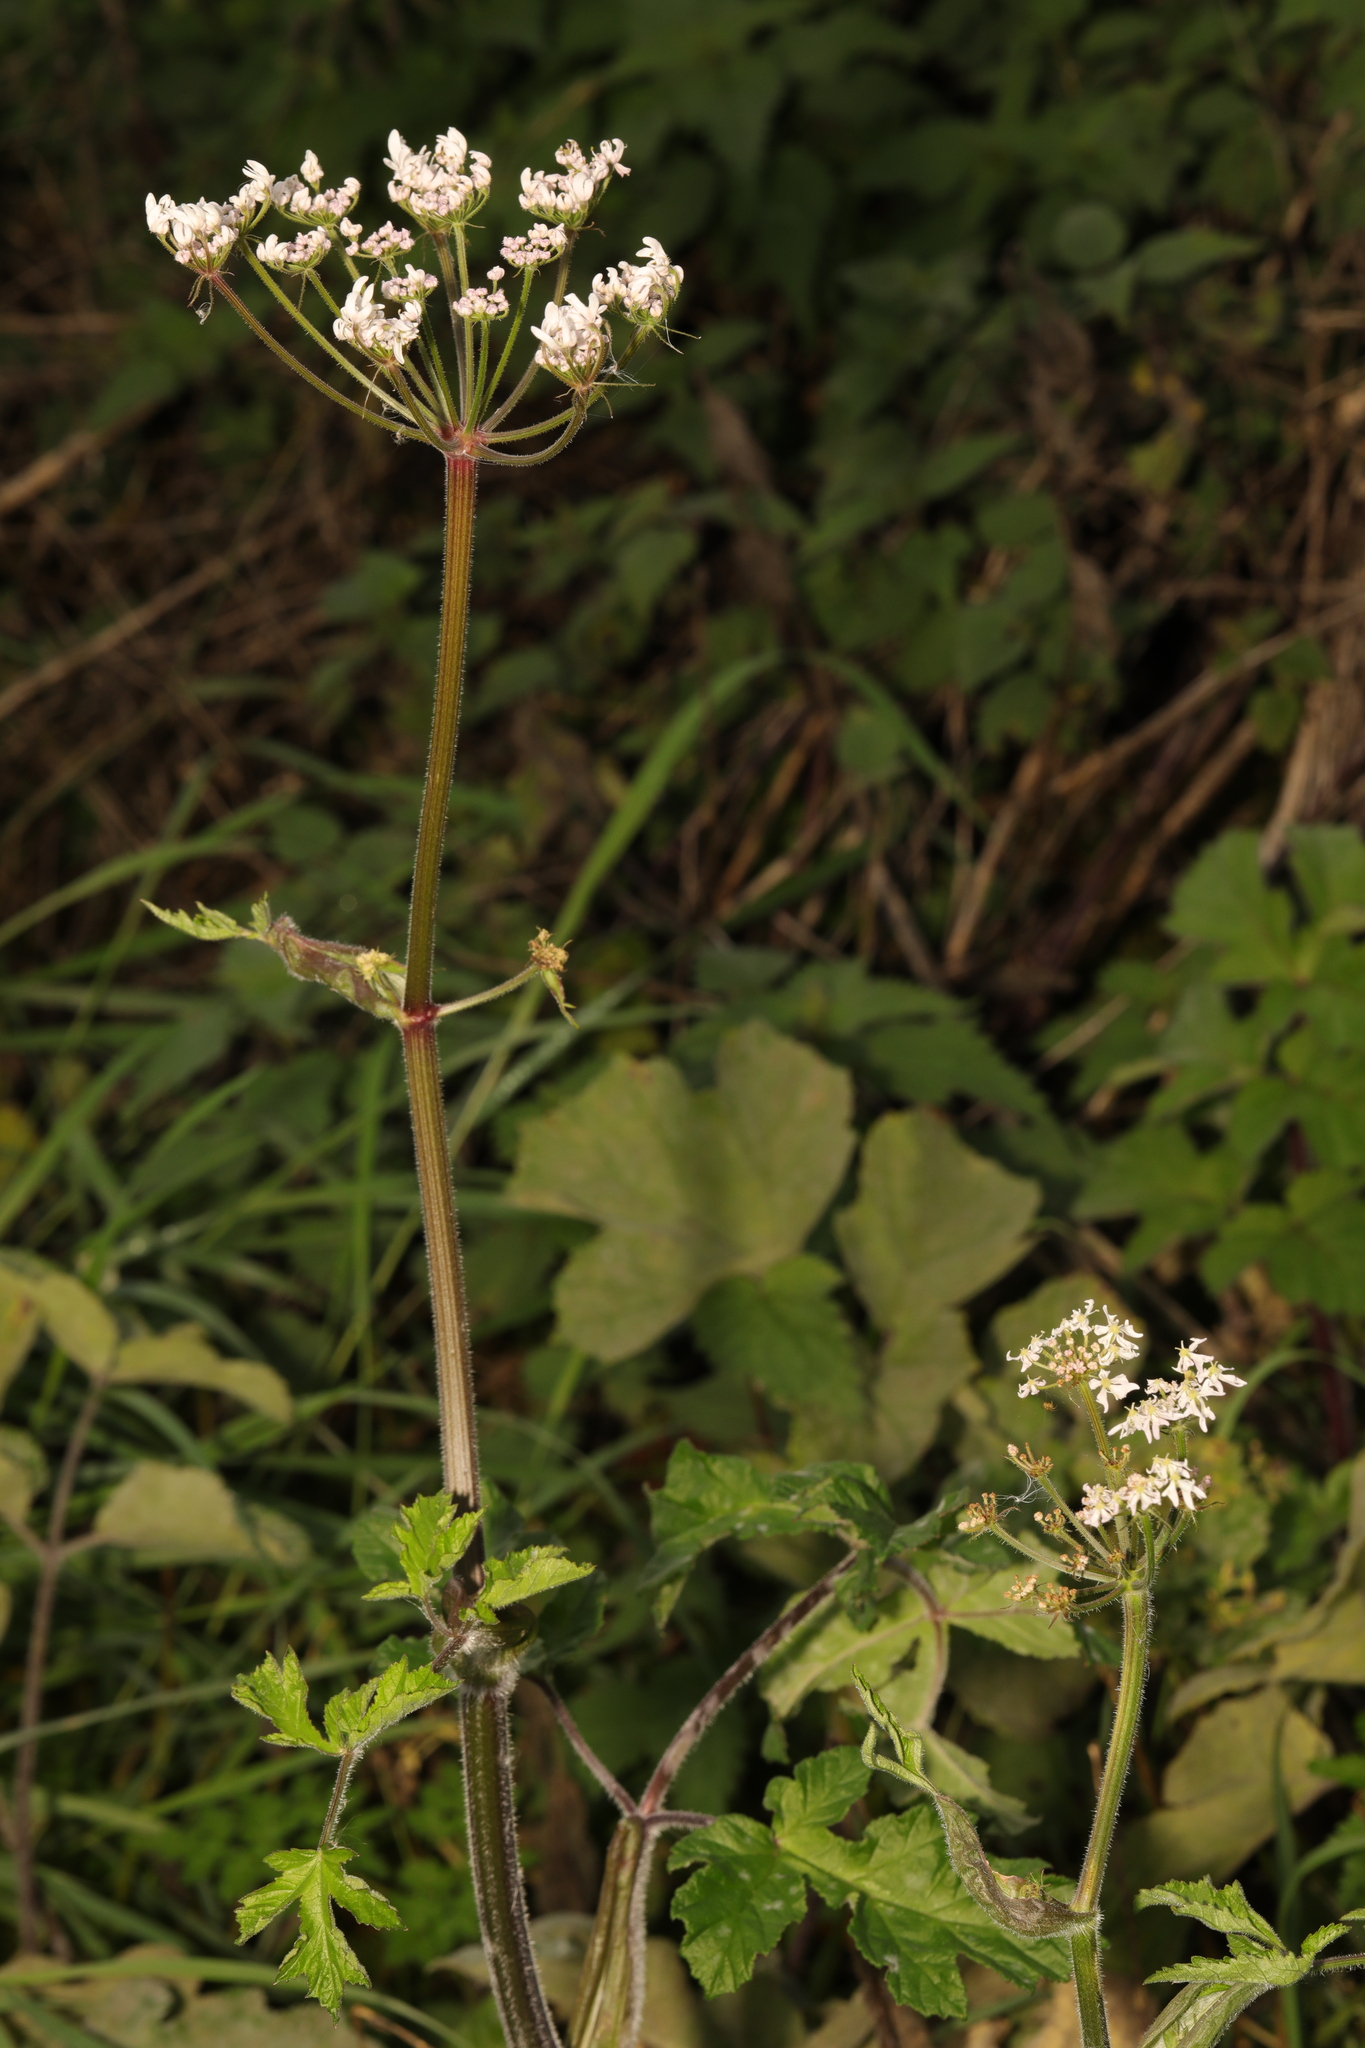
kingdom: Plantae
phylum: Tracheophyta
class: Magnoliopsida
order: Apiales
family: Apiaceae
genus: Heracleum
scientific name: Heracleum sphondylium
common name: Hogweed
